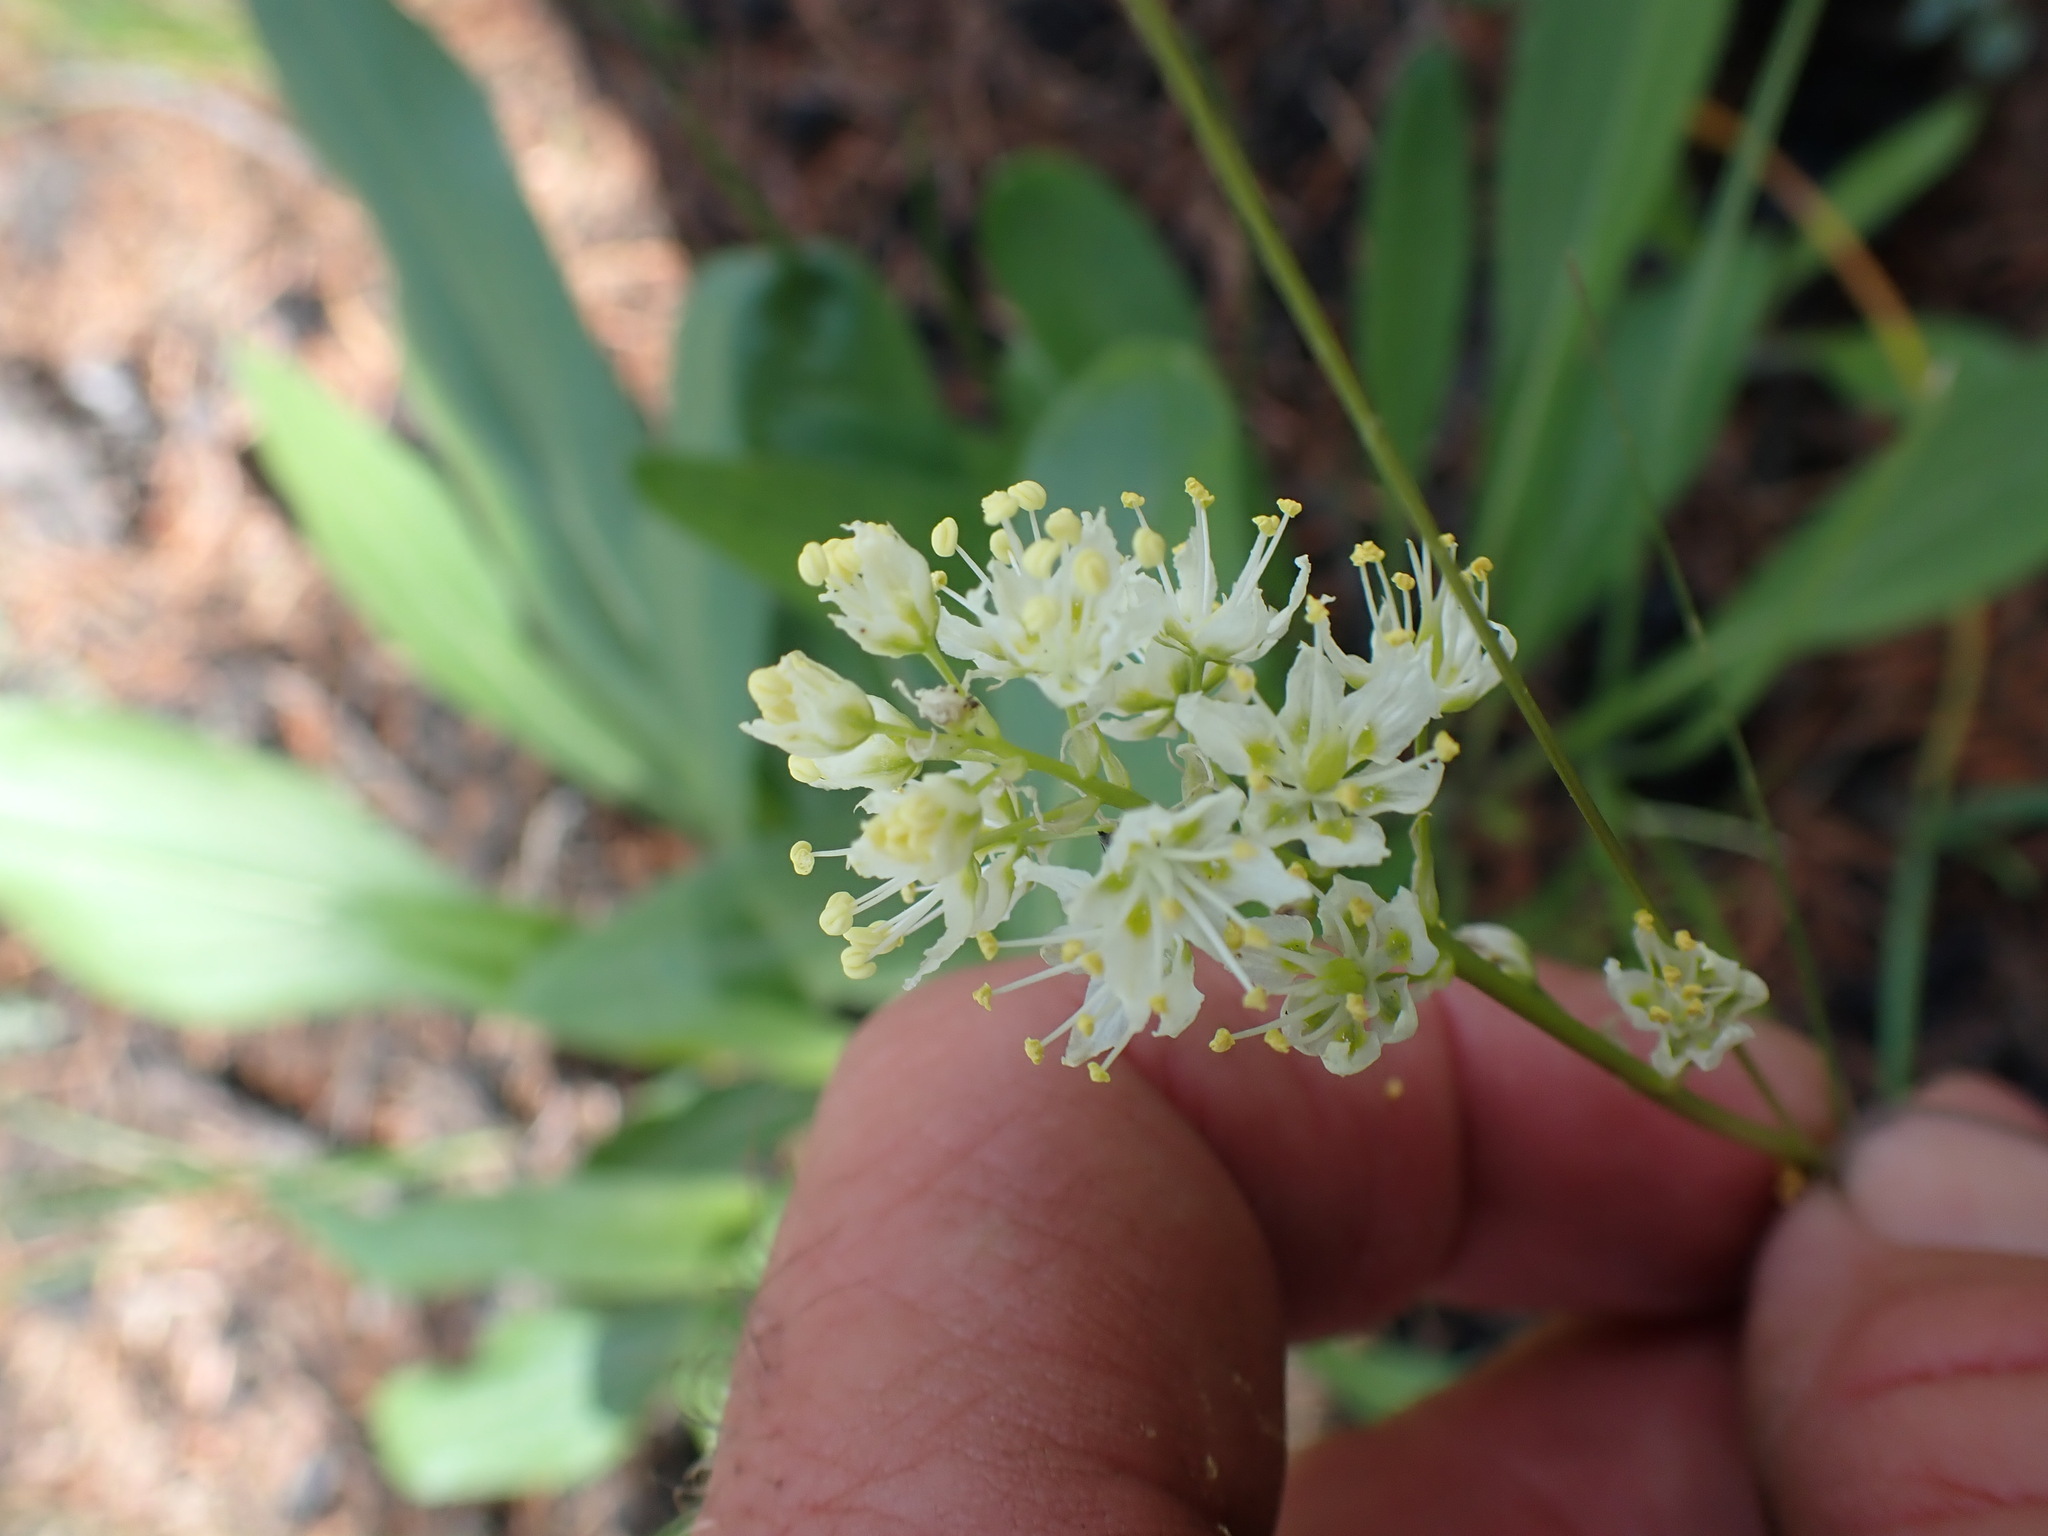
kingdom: Plantae
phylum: Tracheophyta
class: Liliopsida
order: Liliales
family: Melanthiaceae
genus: Toxicoscordion
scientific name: Toxicoscordion venenosum
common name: Meadow death camas
